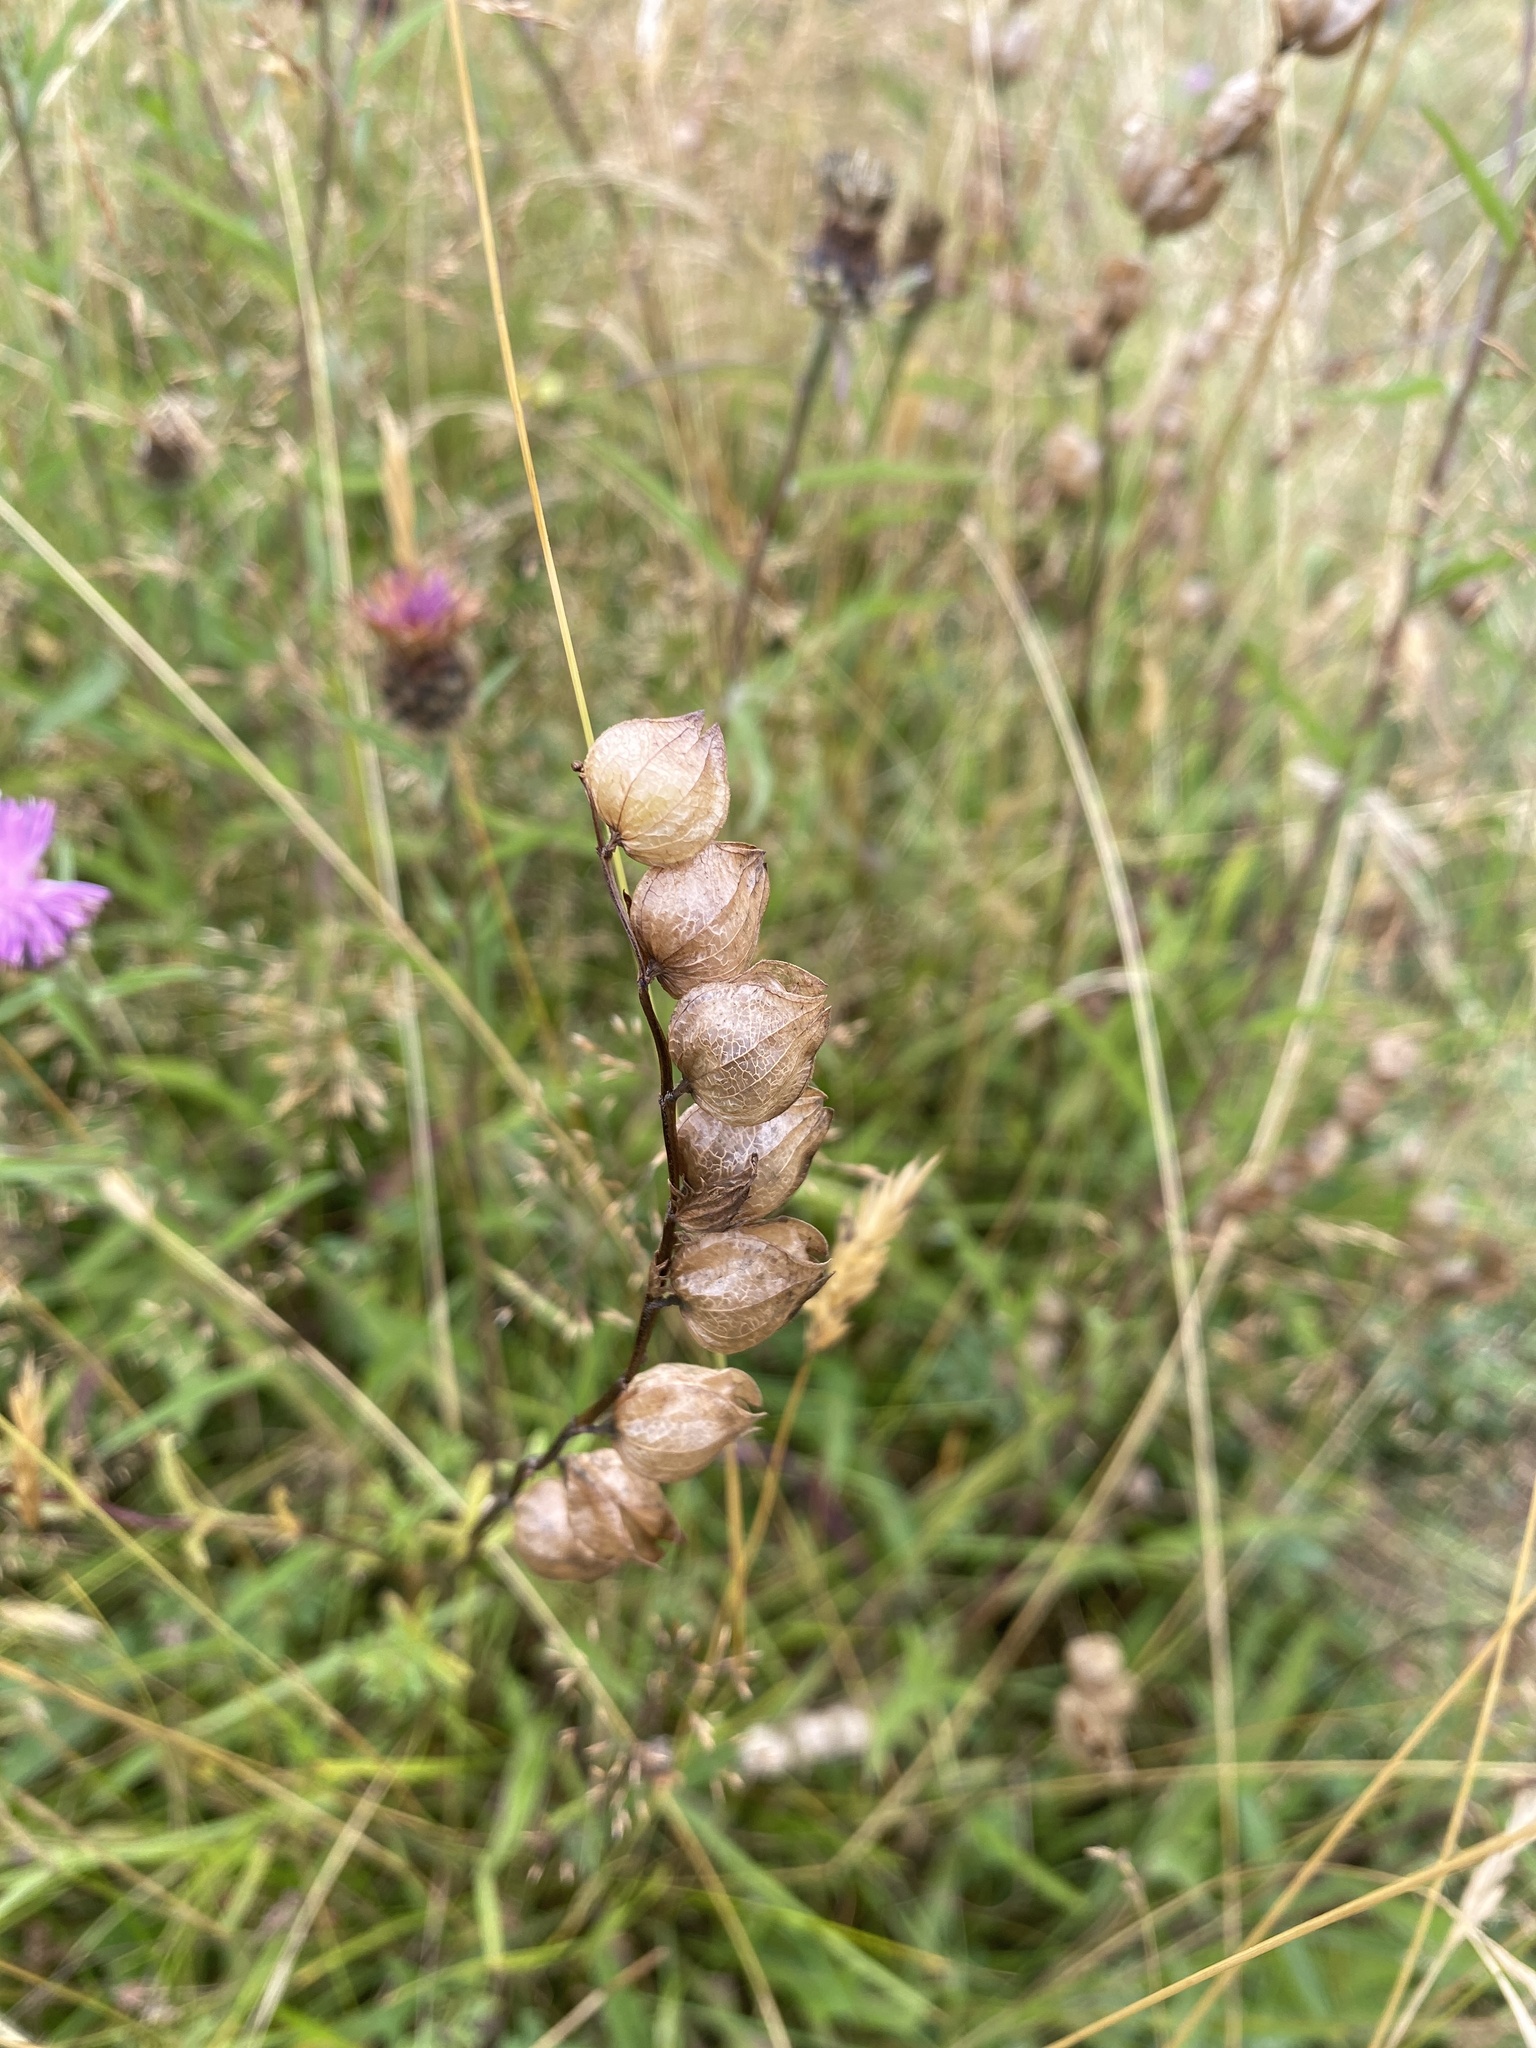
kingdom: Plantae
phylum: Tracheophyta
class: Magnoliopsida
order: Lamiales
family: Orobanchaceae
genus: Rhinanthus
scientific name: Rhinanthus minor
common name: Yellow-rattle
